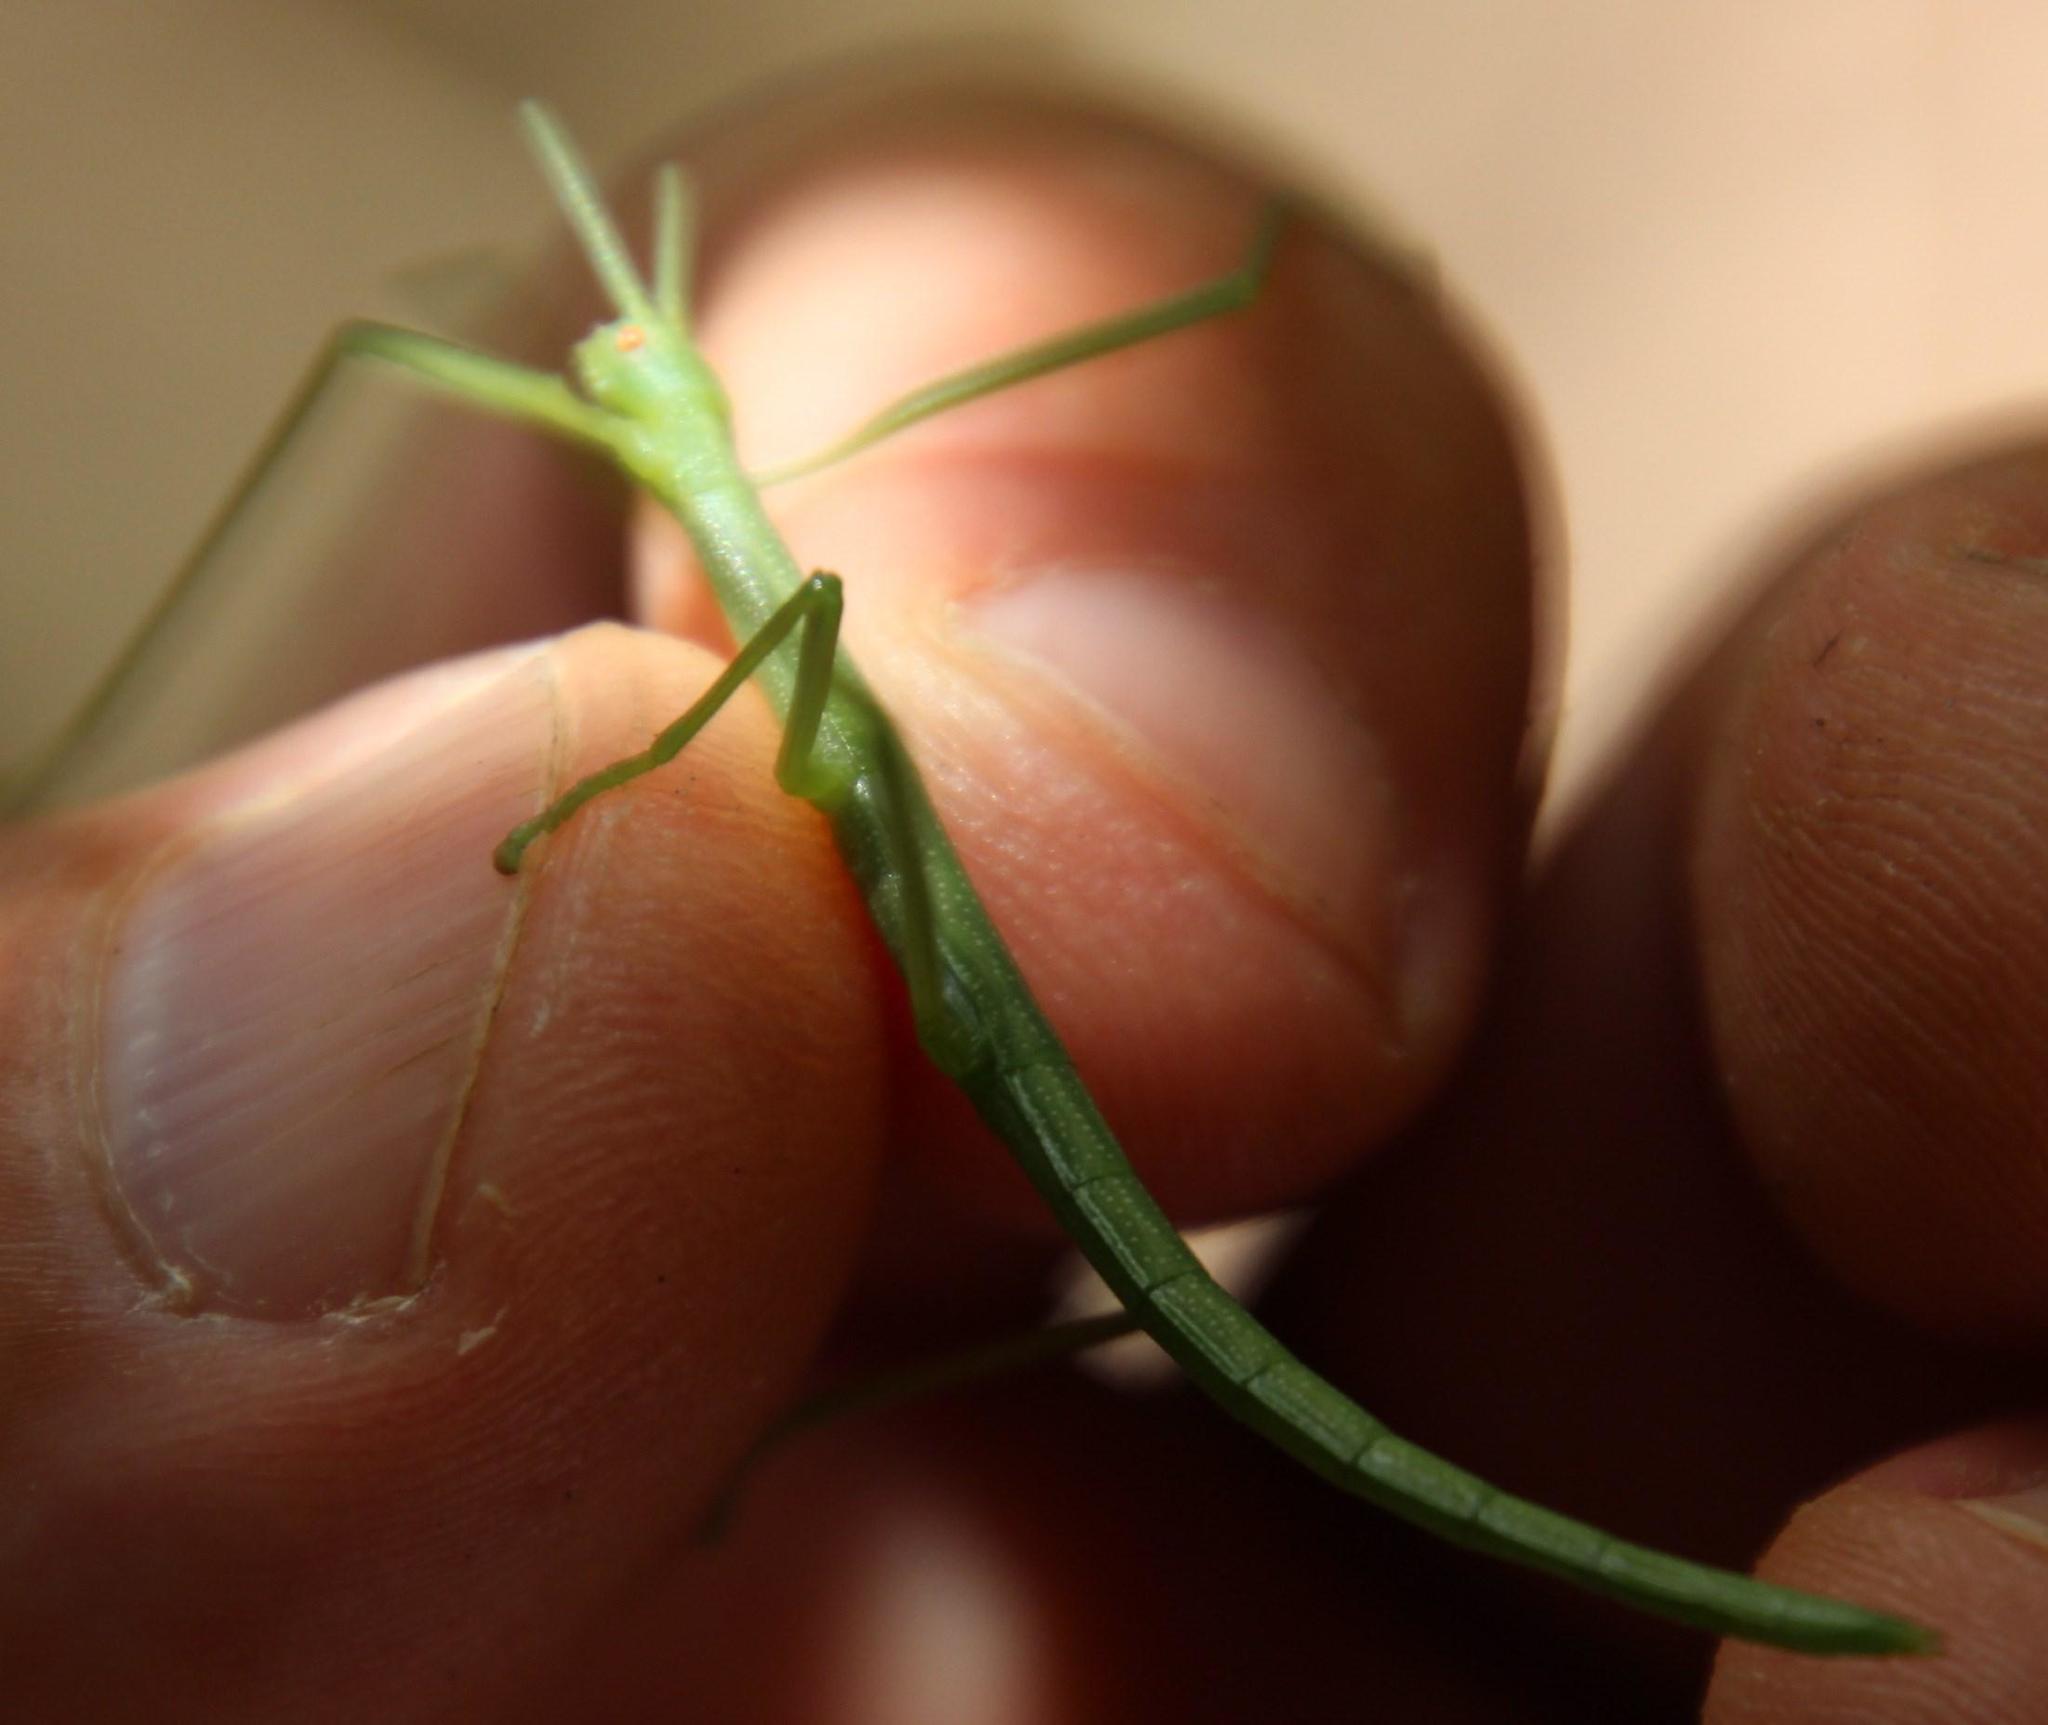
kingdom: Animalia
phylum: Arthropoda
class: Insecta
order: Phasmida
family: Bacillidae
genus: Macynia
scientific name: Macynia labiata
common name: Thunberg's stick insect
